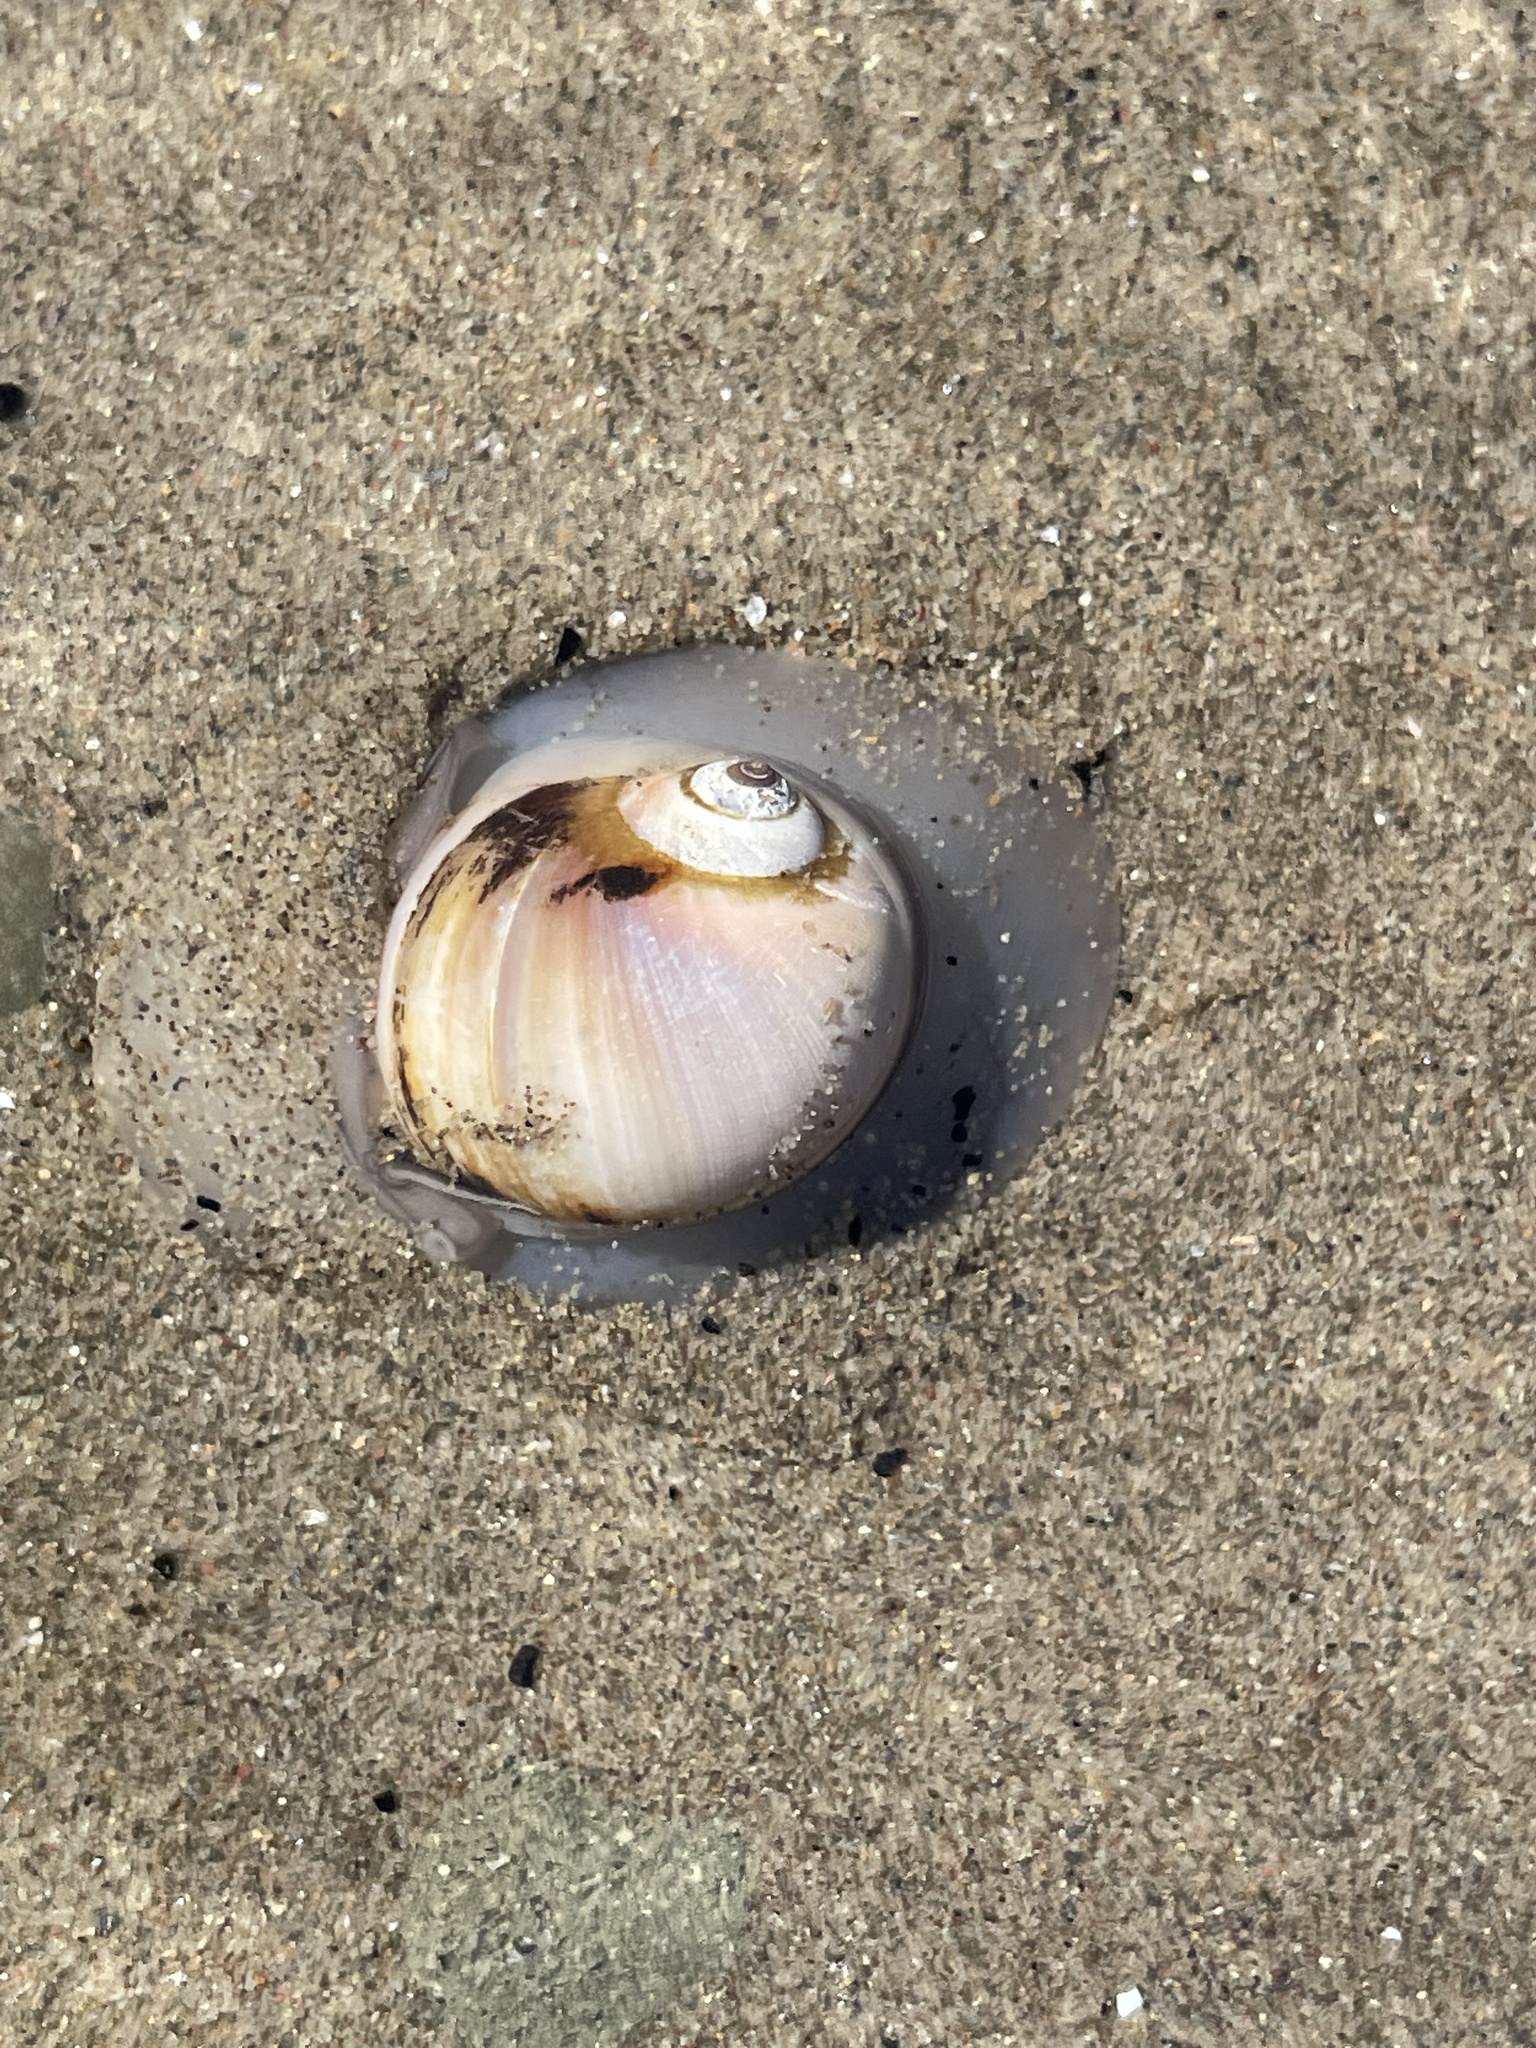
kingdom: Animalia
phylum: Mollusca
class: Gastropoda
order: Littorinimorpha
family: Naticidae
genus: Euspira
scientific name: Euspira heros
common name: Common northern moonsnail
